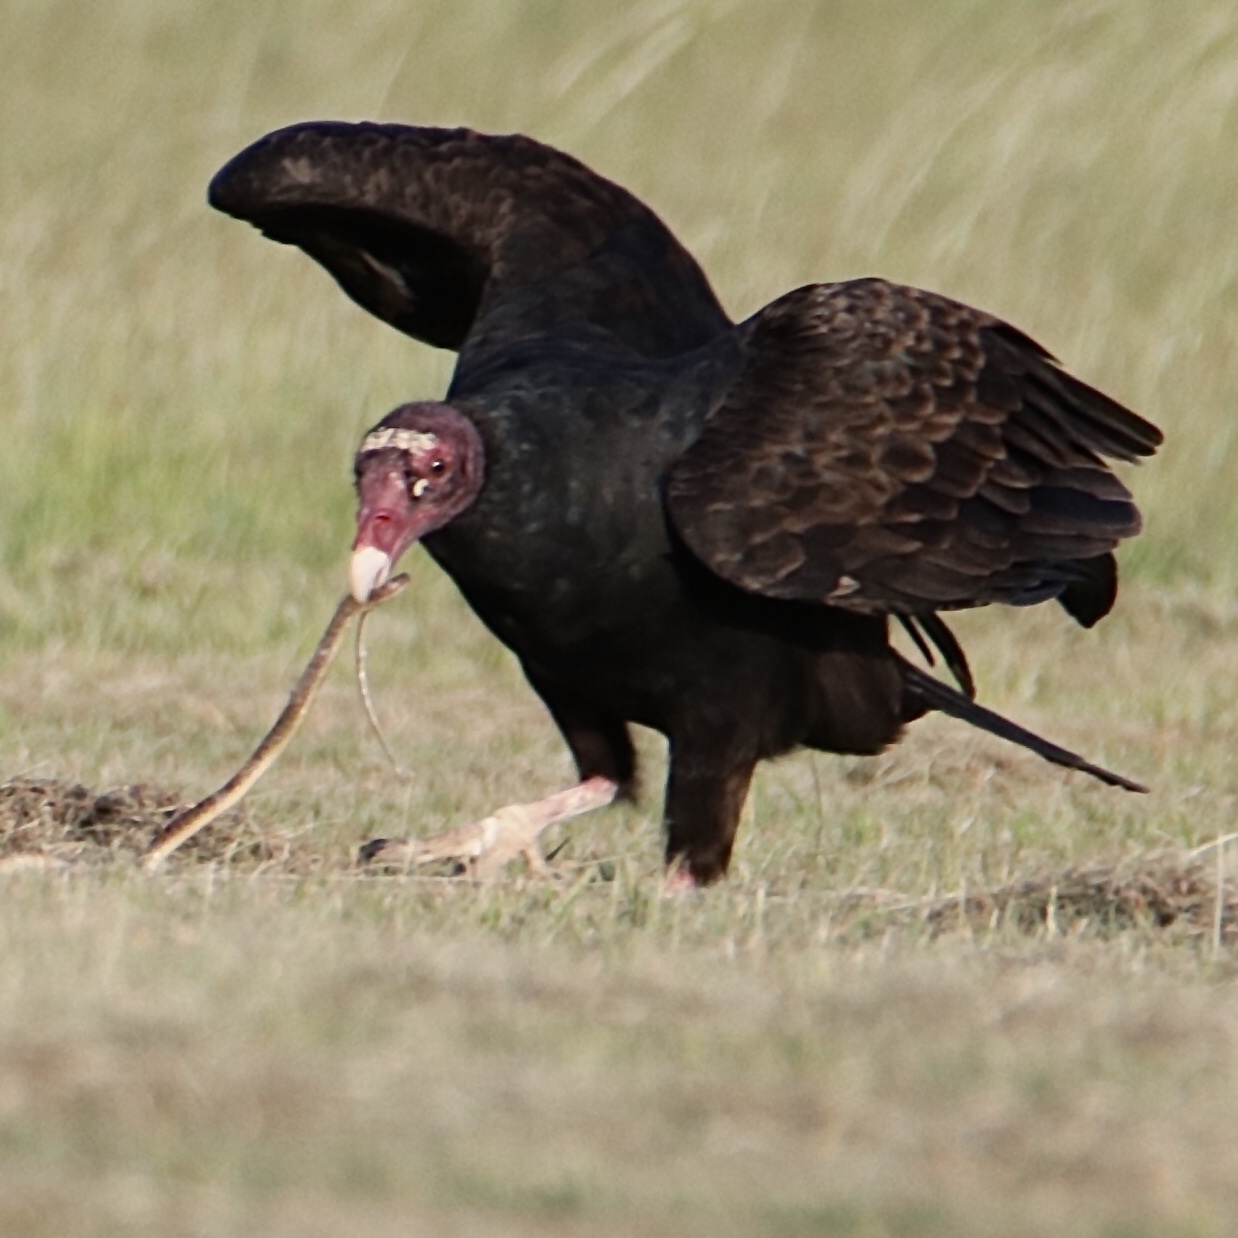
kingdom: Animalia
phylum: Chordata
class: Aves
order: Accipitriformes
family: Cathartidae
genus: Cathartes
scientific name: Cathartes aura
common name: Turkey vulture
